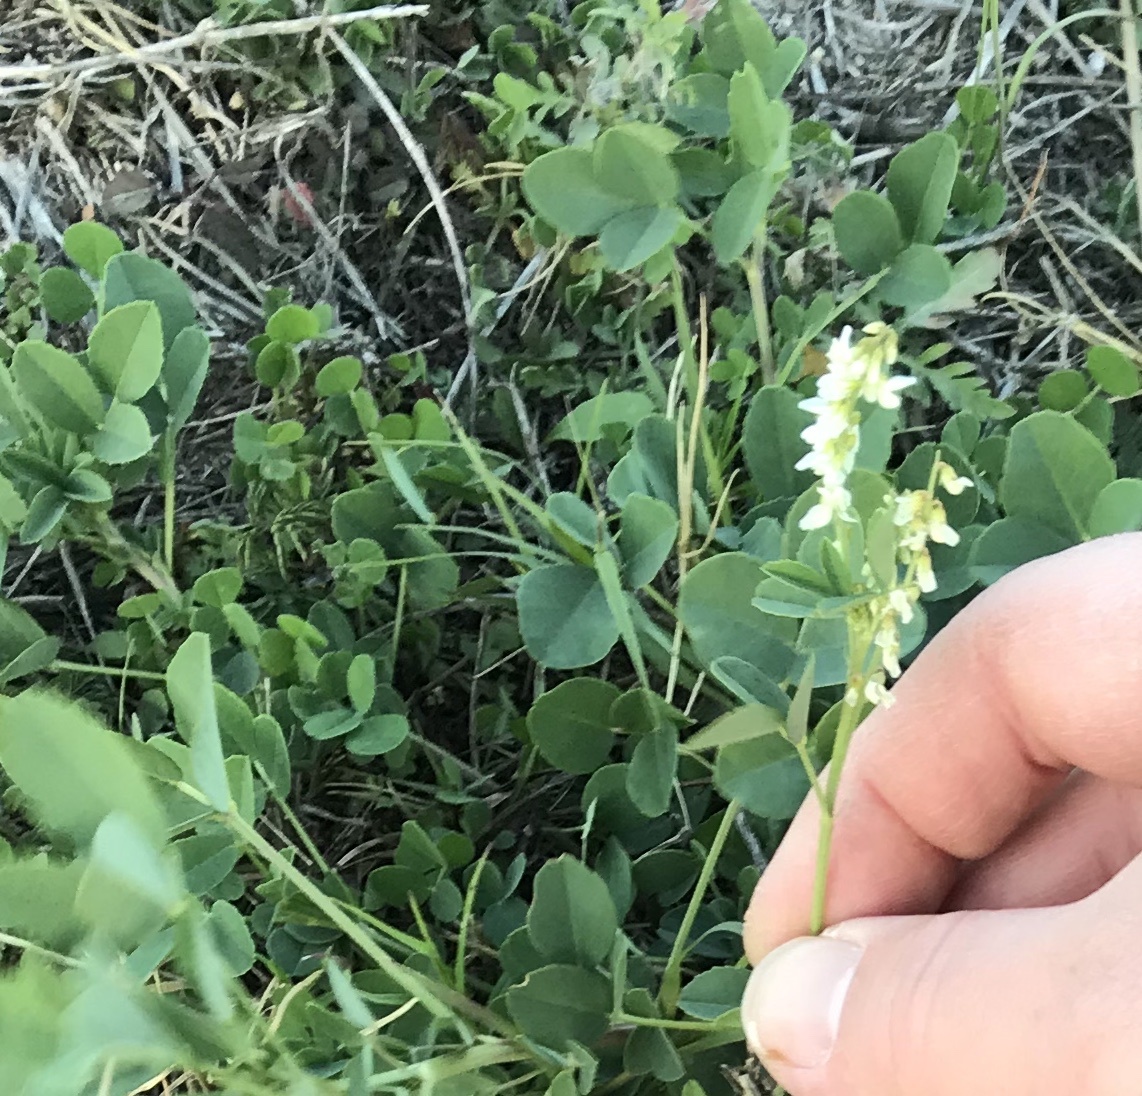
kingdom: Plantae
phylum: Tracheophyta
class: Magnoliopsida
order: Fabales
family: Fabaceae
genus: Melilotus
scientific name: Melilotus albus
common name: White melilot
